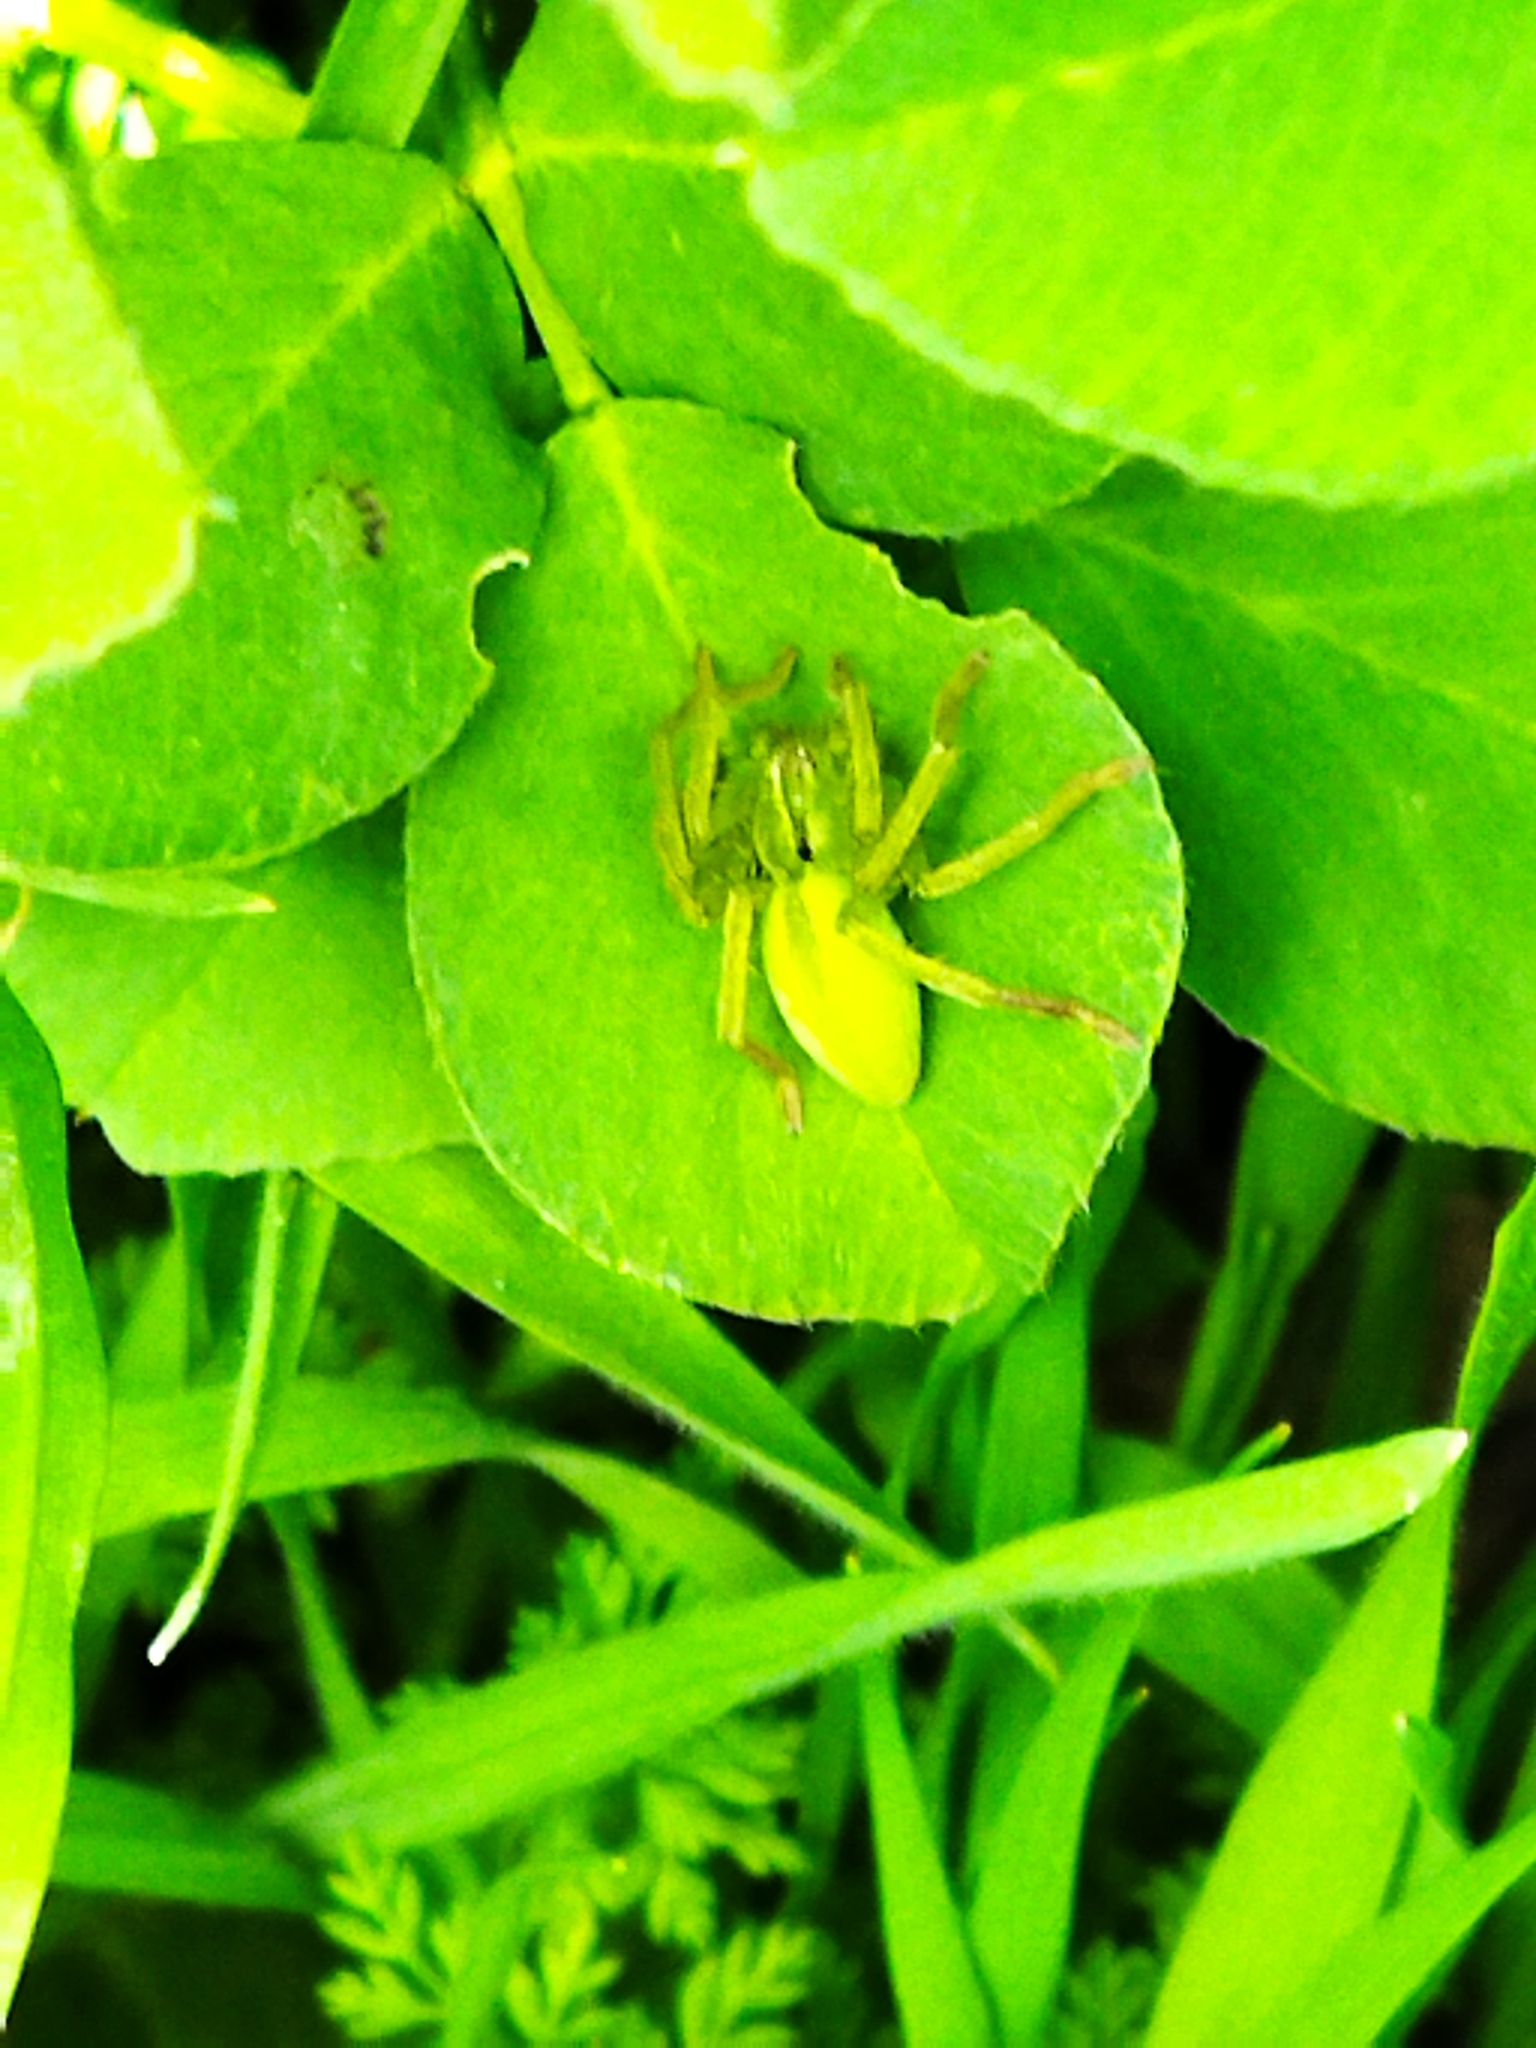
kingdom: Animalia
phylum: Arthropoda
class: Arachnida
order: Araneae
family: Sparassidae
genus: Micrommata
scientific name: Micrommata ligurina
